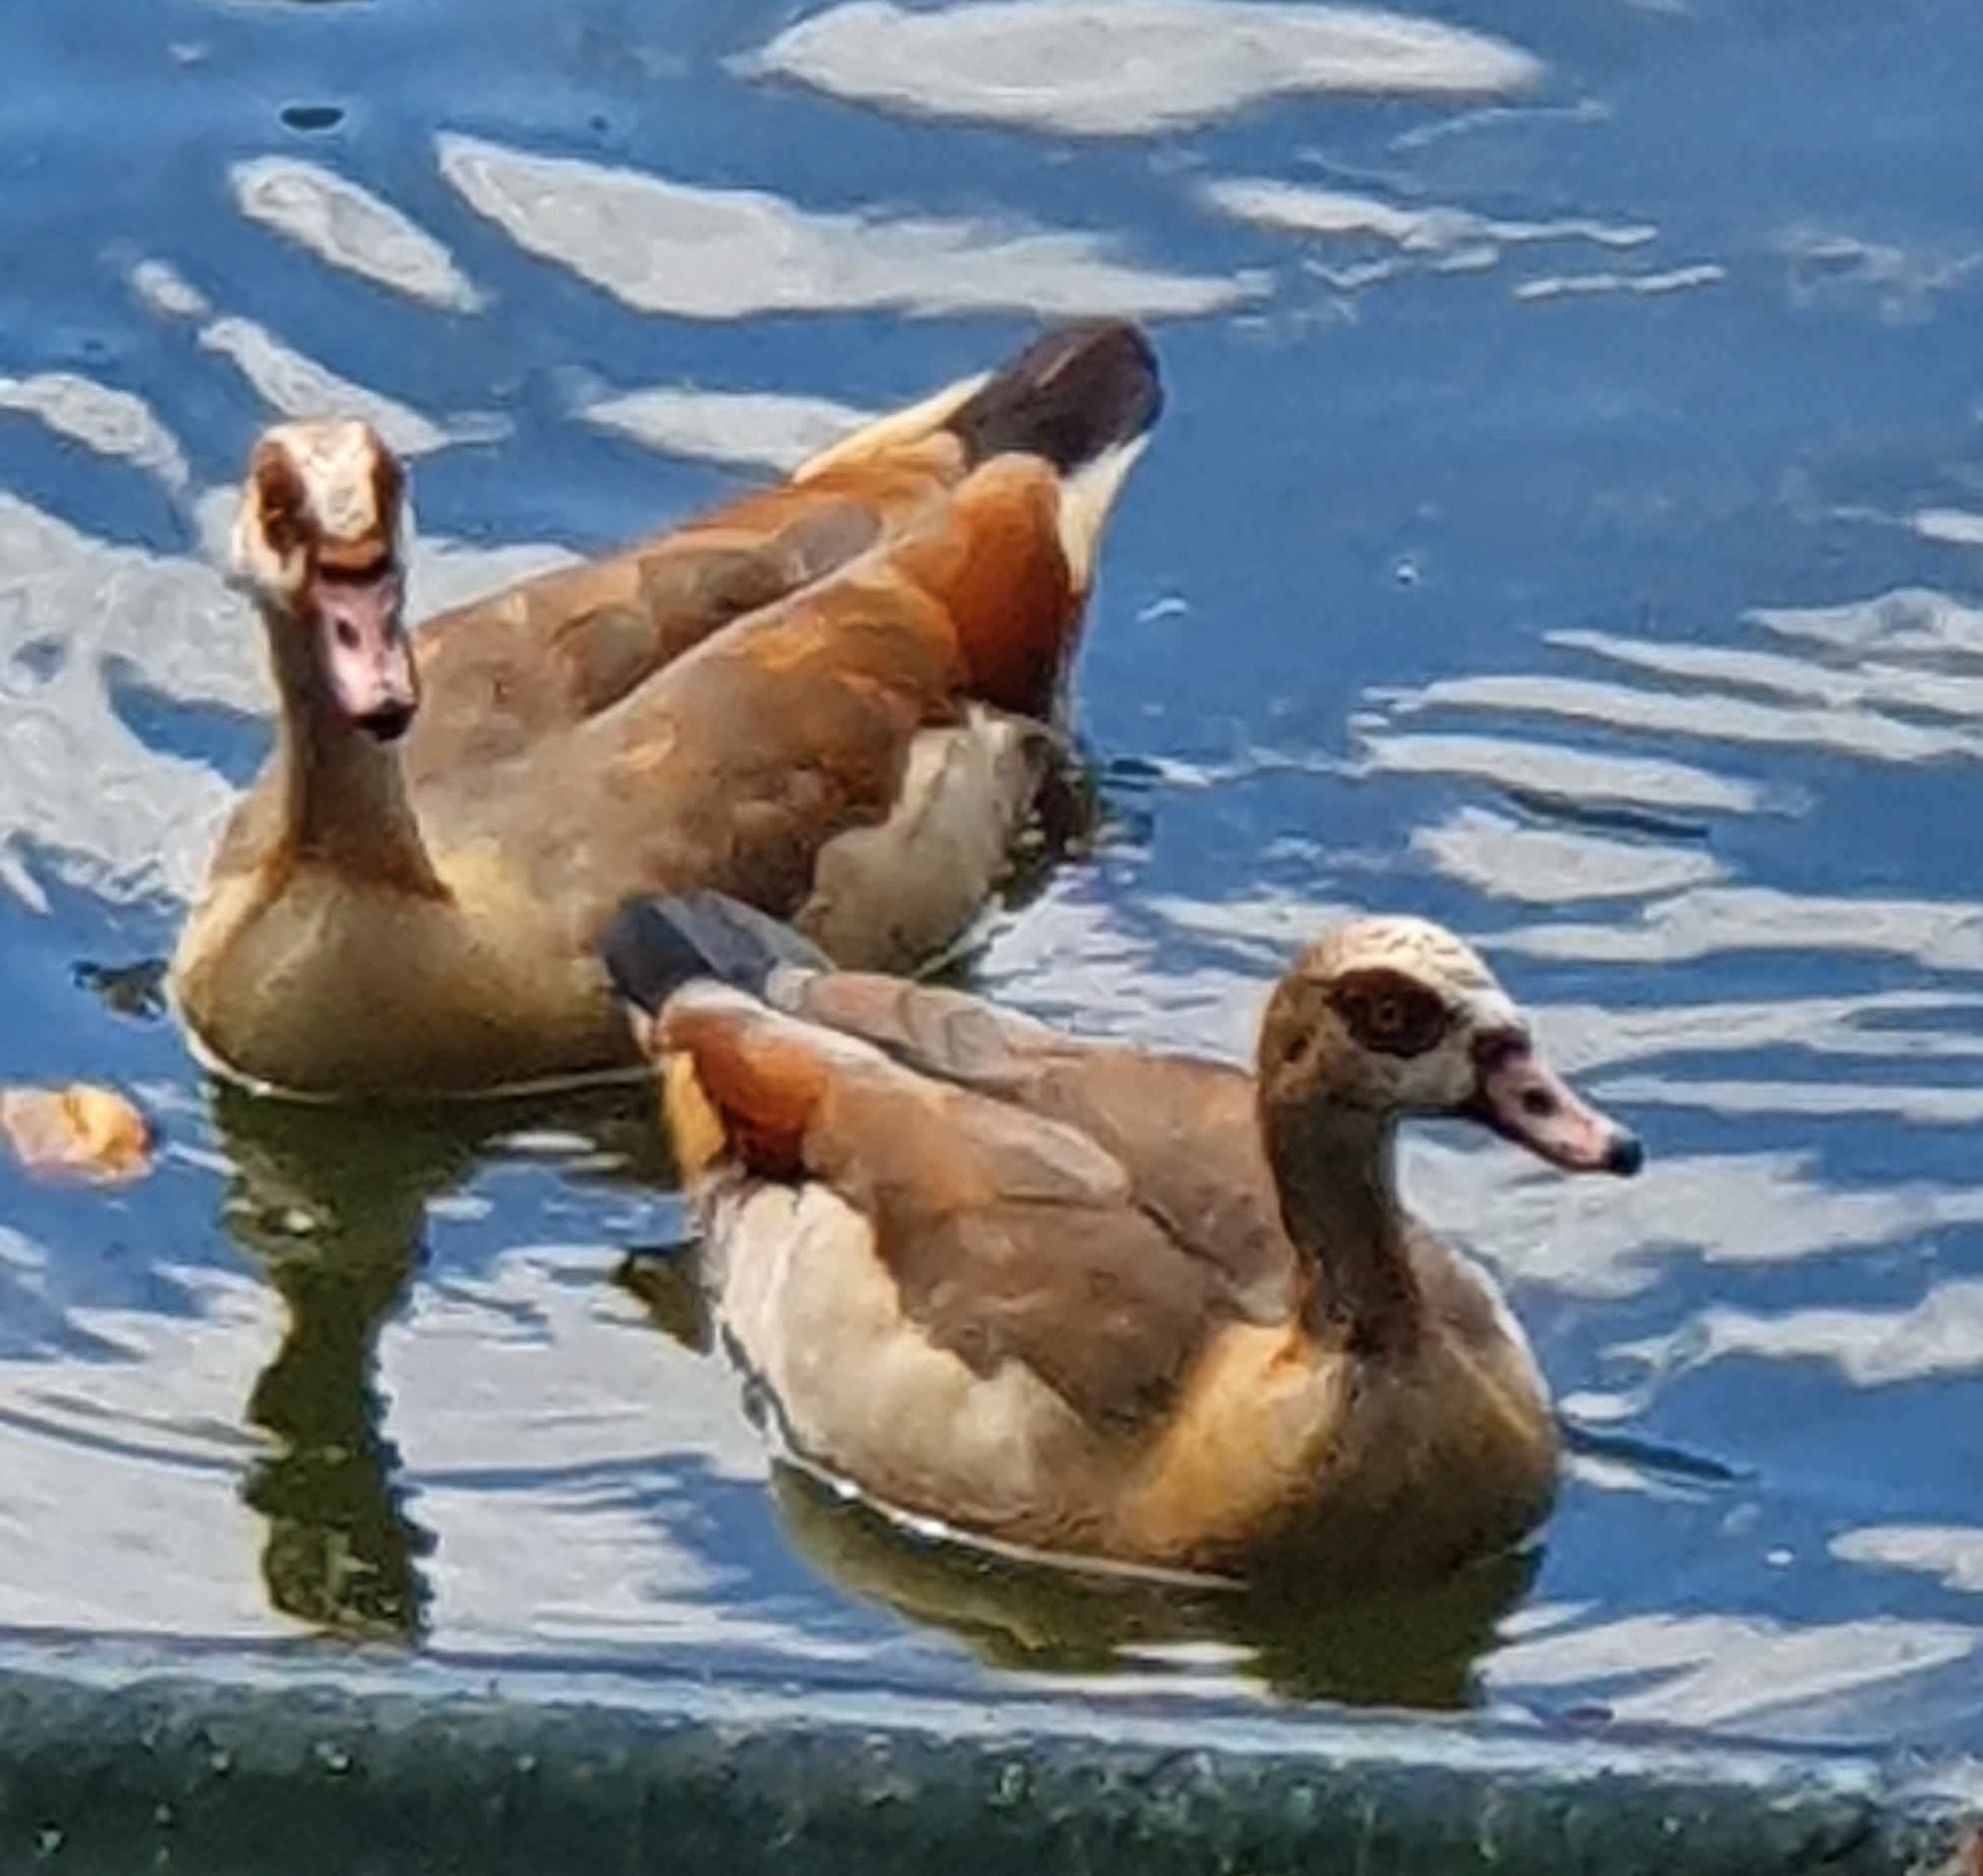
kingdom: Animalia
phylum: Chordata
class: Aves
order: Anseriformes
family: Anatidae
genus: Alopochen
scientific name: Alopochen aegyptiaca
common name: Egyptian goose
